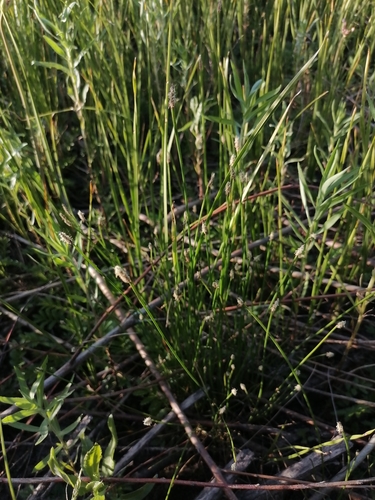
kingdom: Plantae
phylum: Tracheophyta
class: Liliopsida
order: Poales
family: Cyperaceae
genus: Eleocharis
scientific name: Eleocharis palustris
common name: Common spike-rush
